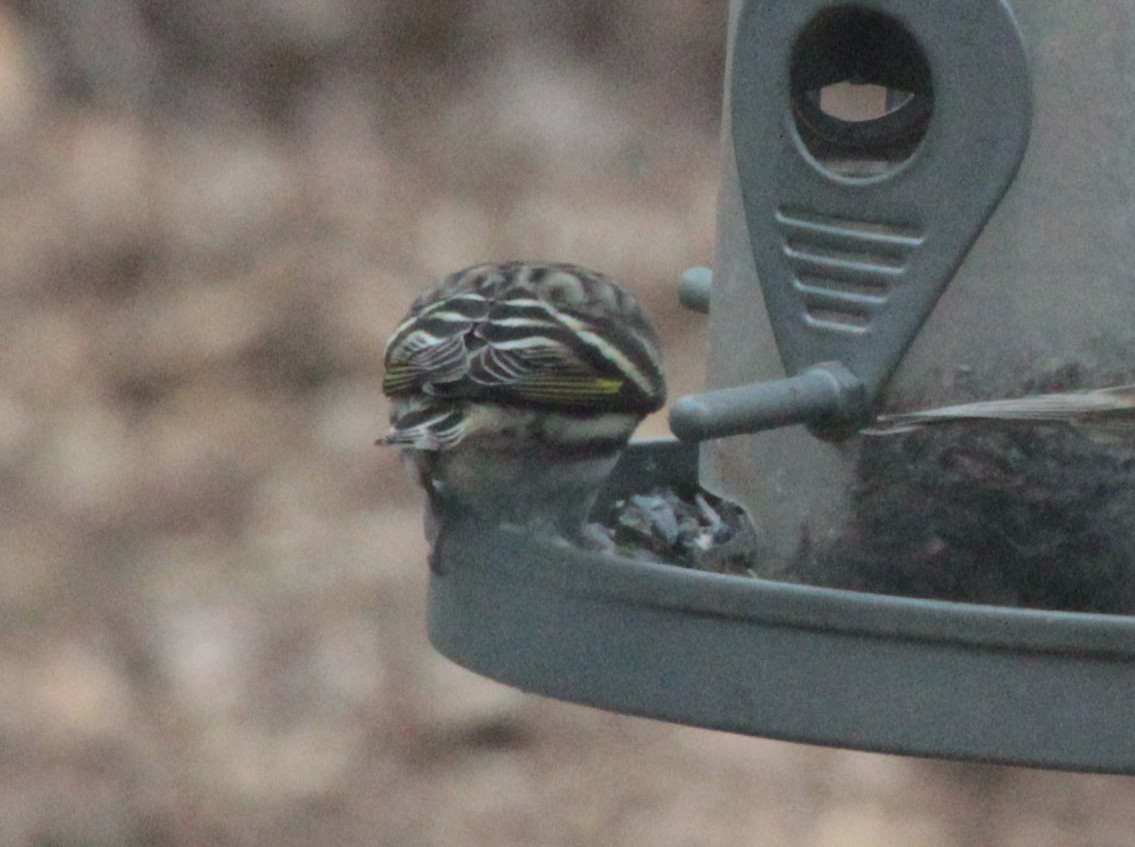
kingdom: Animalia
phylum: Chordata
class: Aves
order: Passeriformes
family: Fringillidae
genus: Spinus
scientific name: Spinus pinus
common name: Pine siskin
